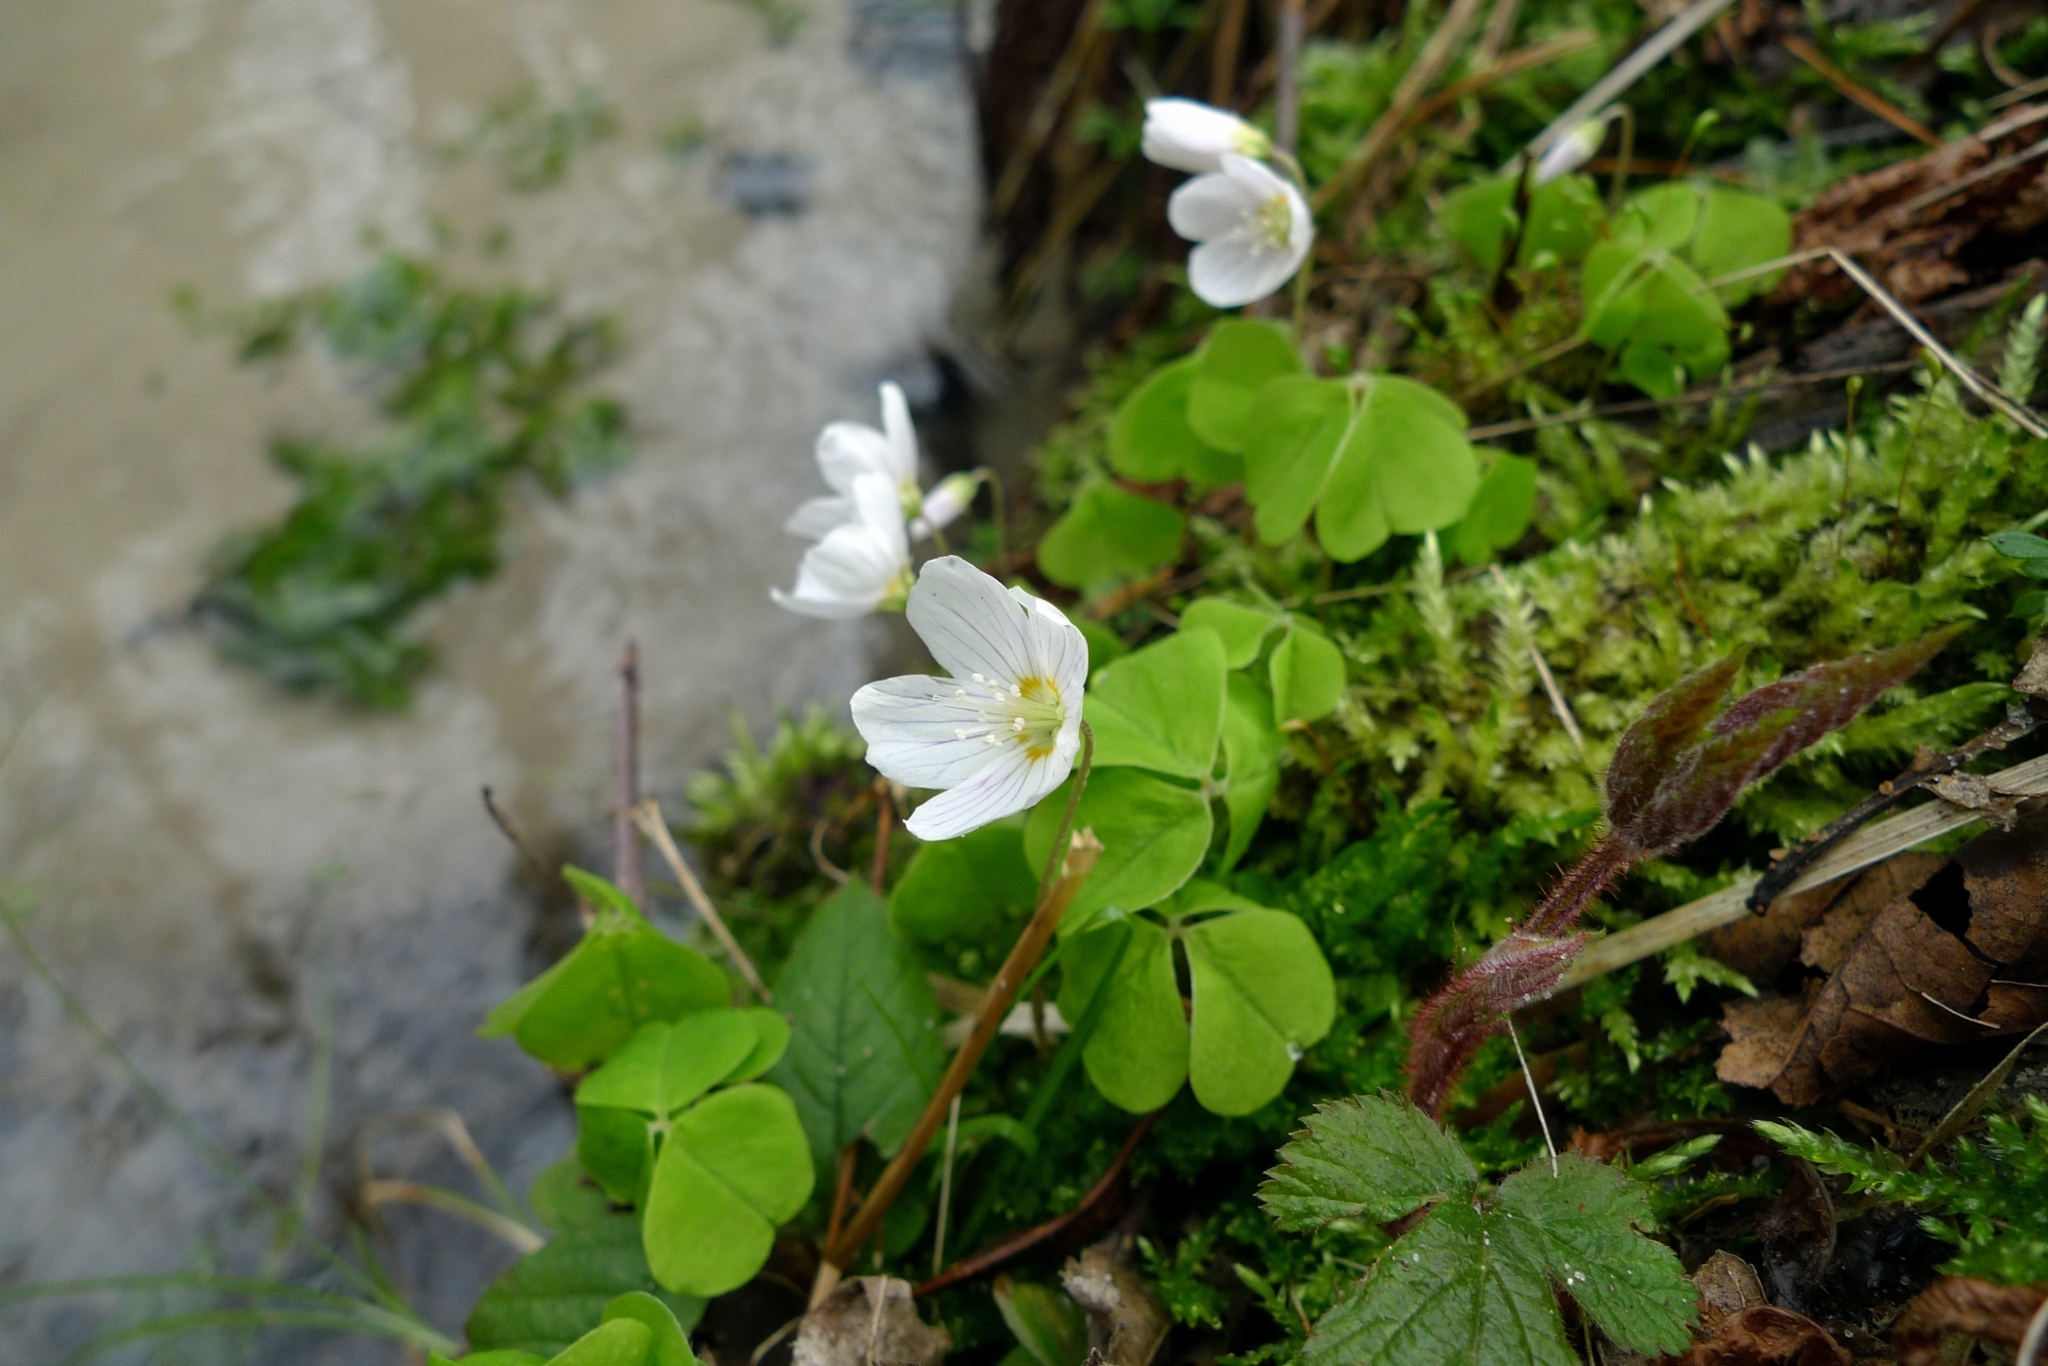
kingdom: Plantae
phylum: Tracheophyta
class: Magnoliopsida
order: Oxalidales
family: Oxalidaceae
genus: Oxalis
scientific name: Oxalis acetosella
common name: Wood-sorrel
